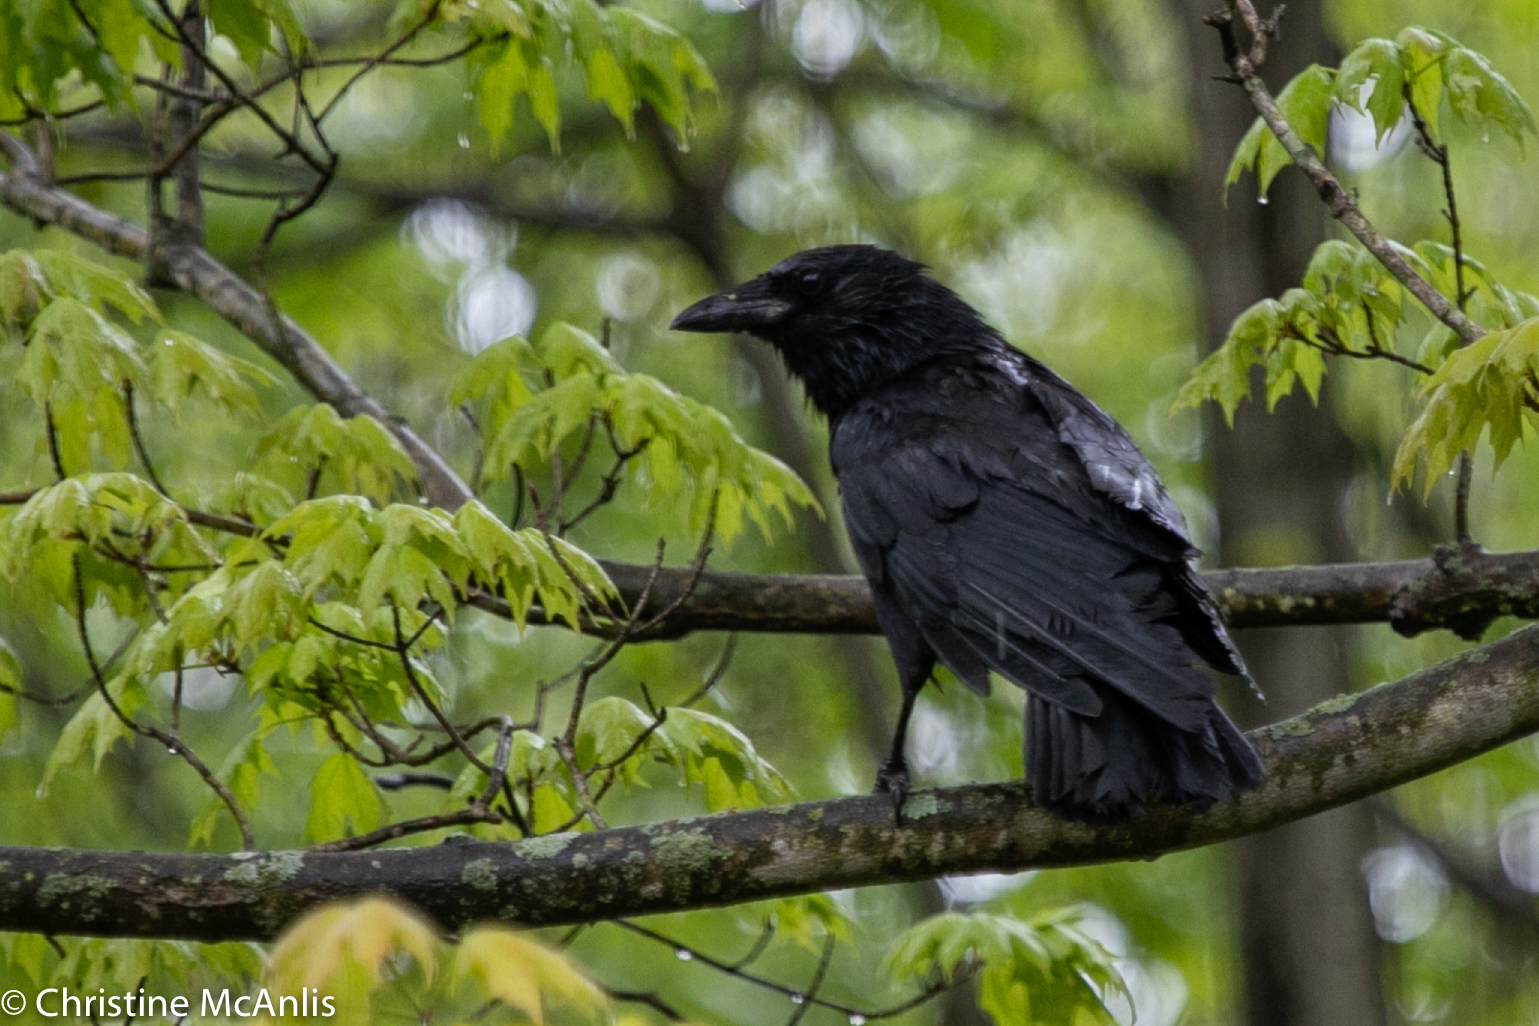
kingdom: Animalia
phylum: Chordata
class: Aves
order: Passeriformes
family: Corvidae
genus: Corvus
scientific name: Corvus brachyrhynchos
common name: American crow
